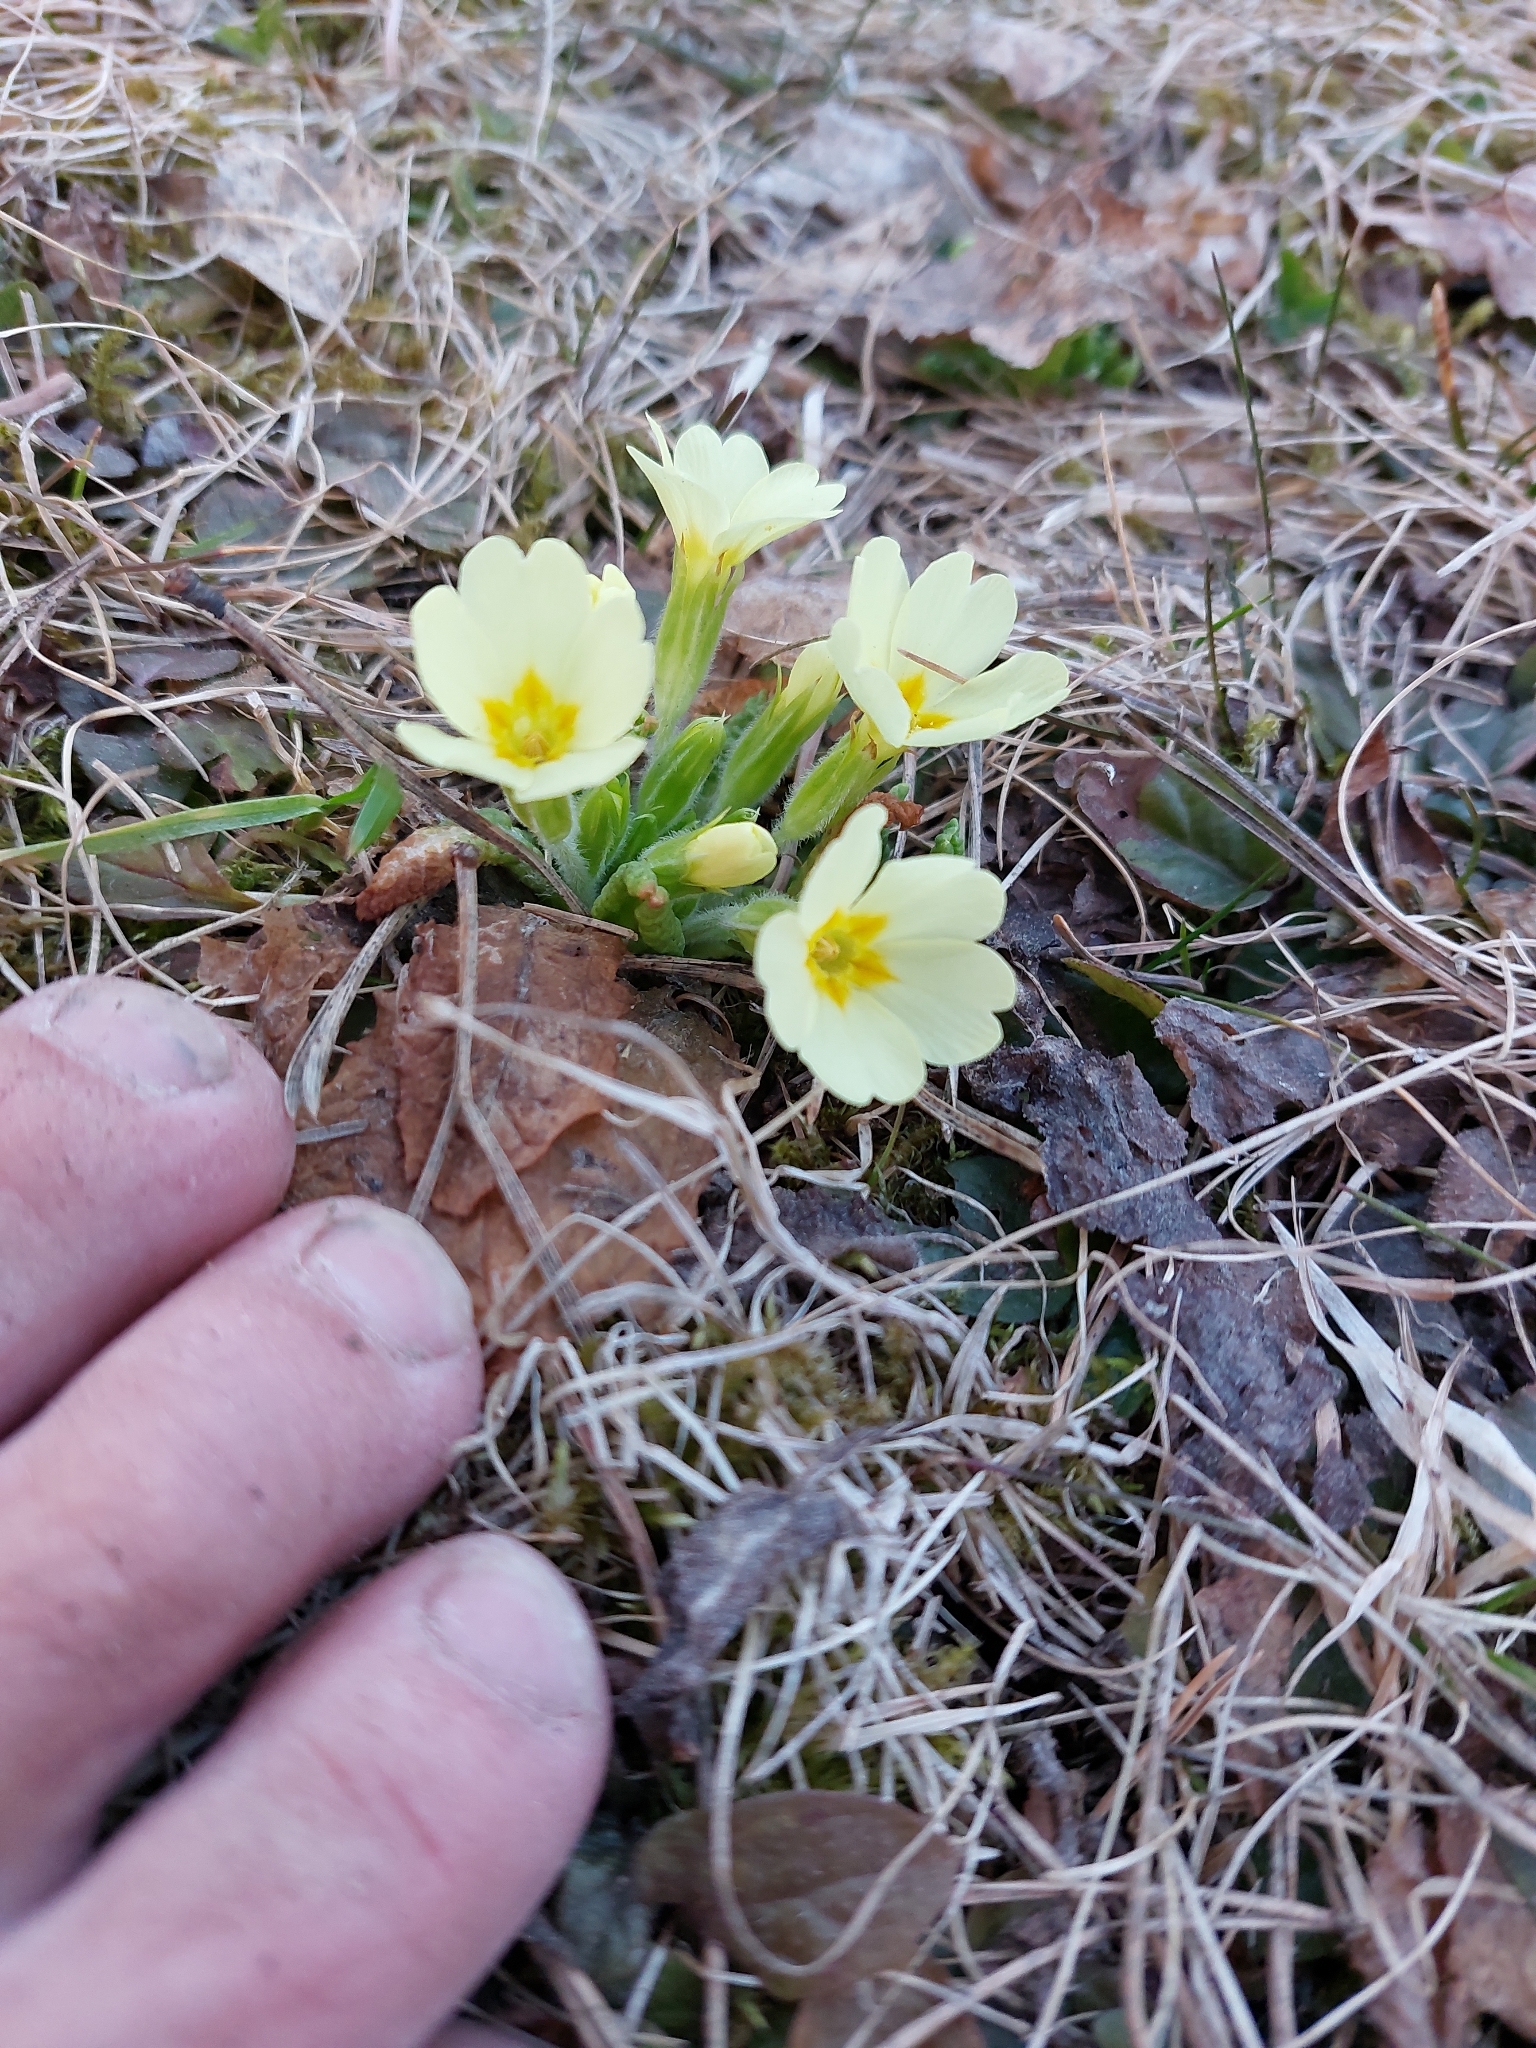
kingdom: Plantae
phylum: Tracheophyta
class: Magnoliopsida
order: Ericales
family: Primulaceae
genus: Primula
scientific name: Primula vulgaris
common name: Primrose
